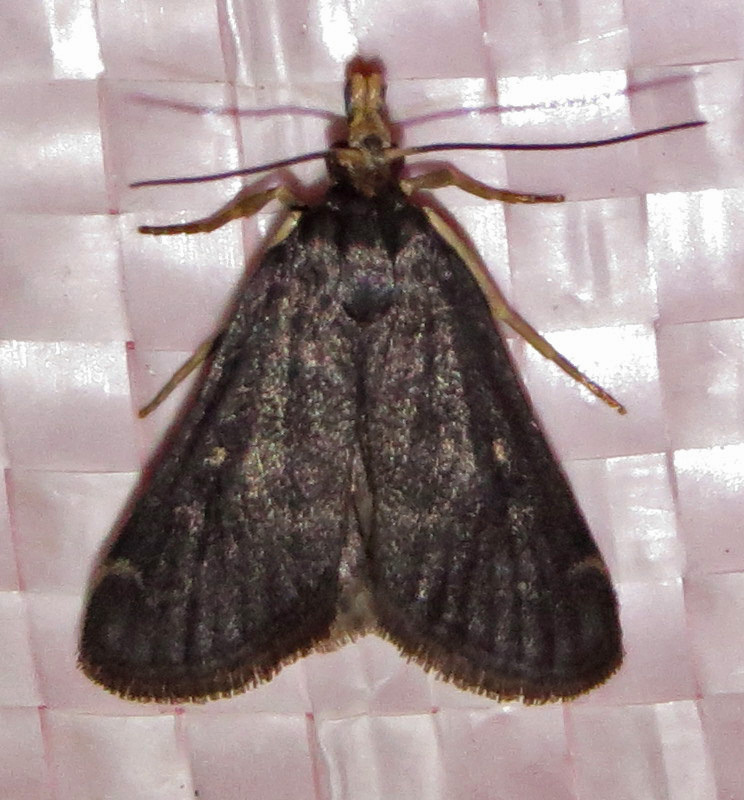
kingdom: Animalia
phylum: Arthropoda
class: Insecta
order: Lepidoptera
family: Crambidae
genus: Loxostegopsis
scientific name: Loxostegopsis curialis
